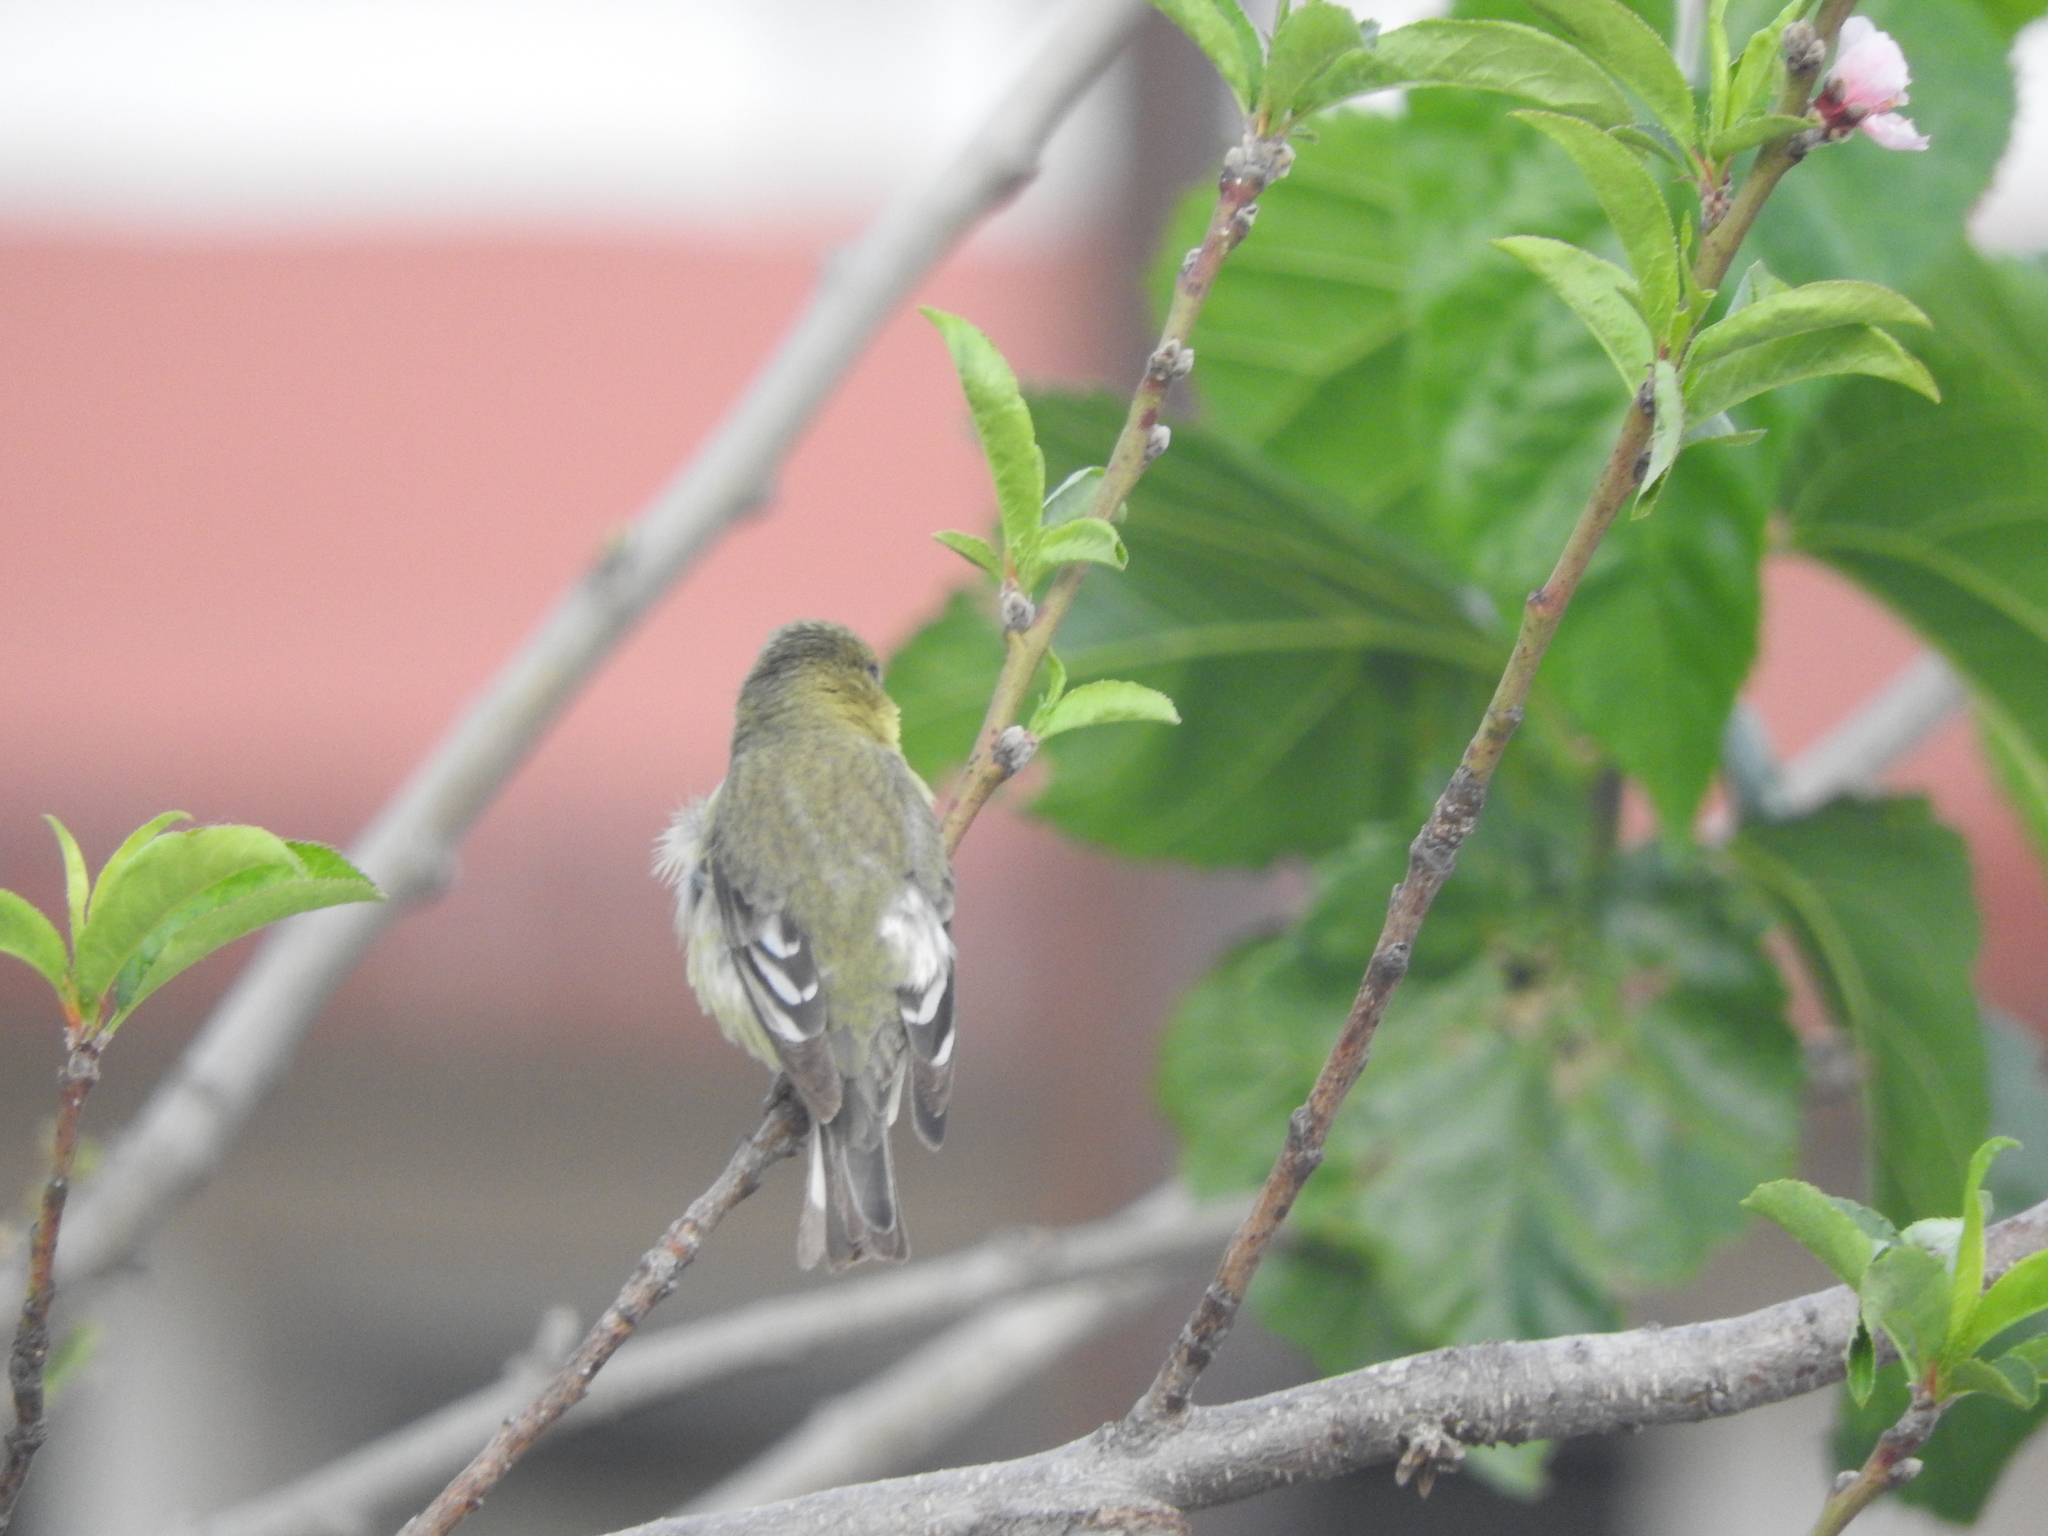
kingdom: Animalia
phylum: Chordata
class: Aves
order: Passeriformes
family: Fringillidae
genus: Spinus
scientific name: Spinus psaltria
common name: Lesser goldfinch
